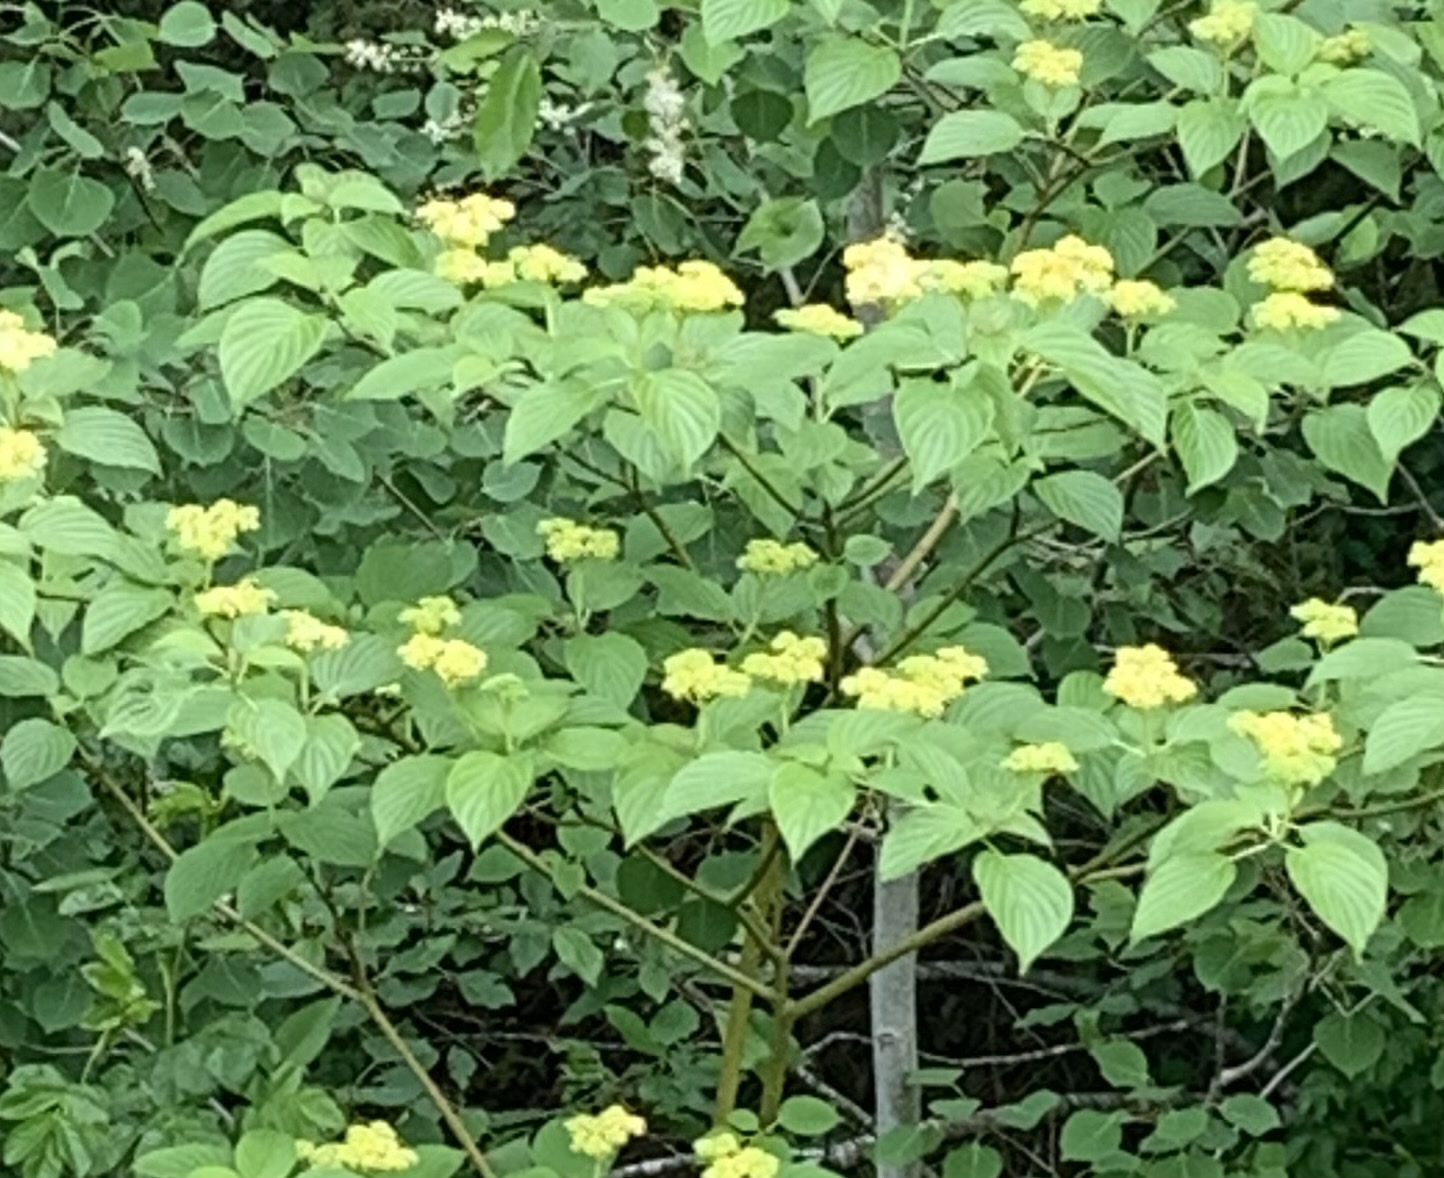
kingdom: Plantae
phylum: Tracheophyta
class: Magnoliopsida
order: Cornales
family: Cornaceae
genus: Cornus
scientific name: Cornus alternifolia
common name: Pagoda dogwood
